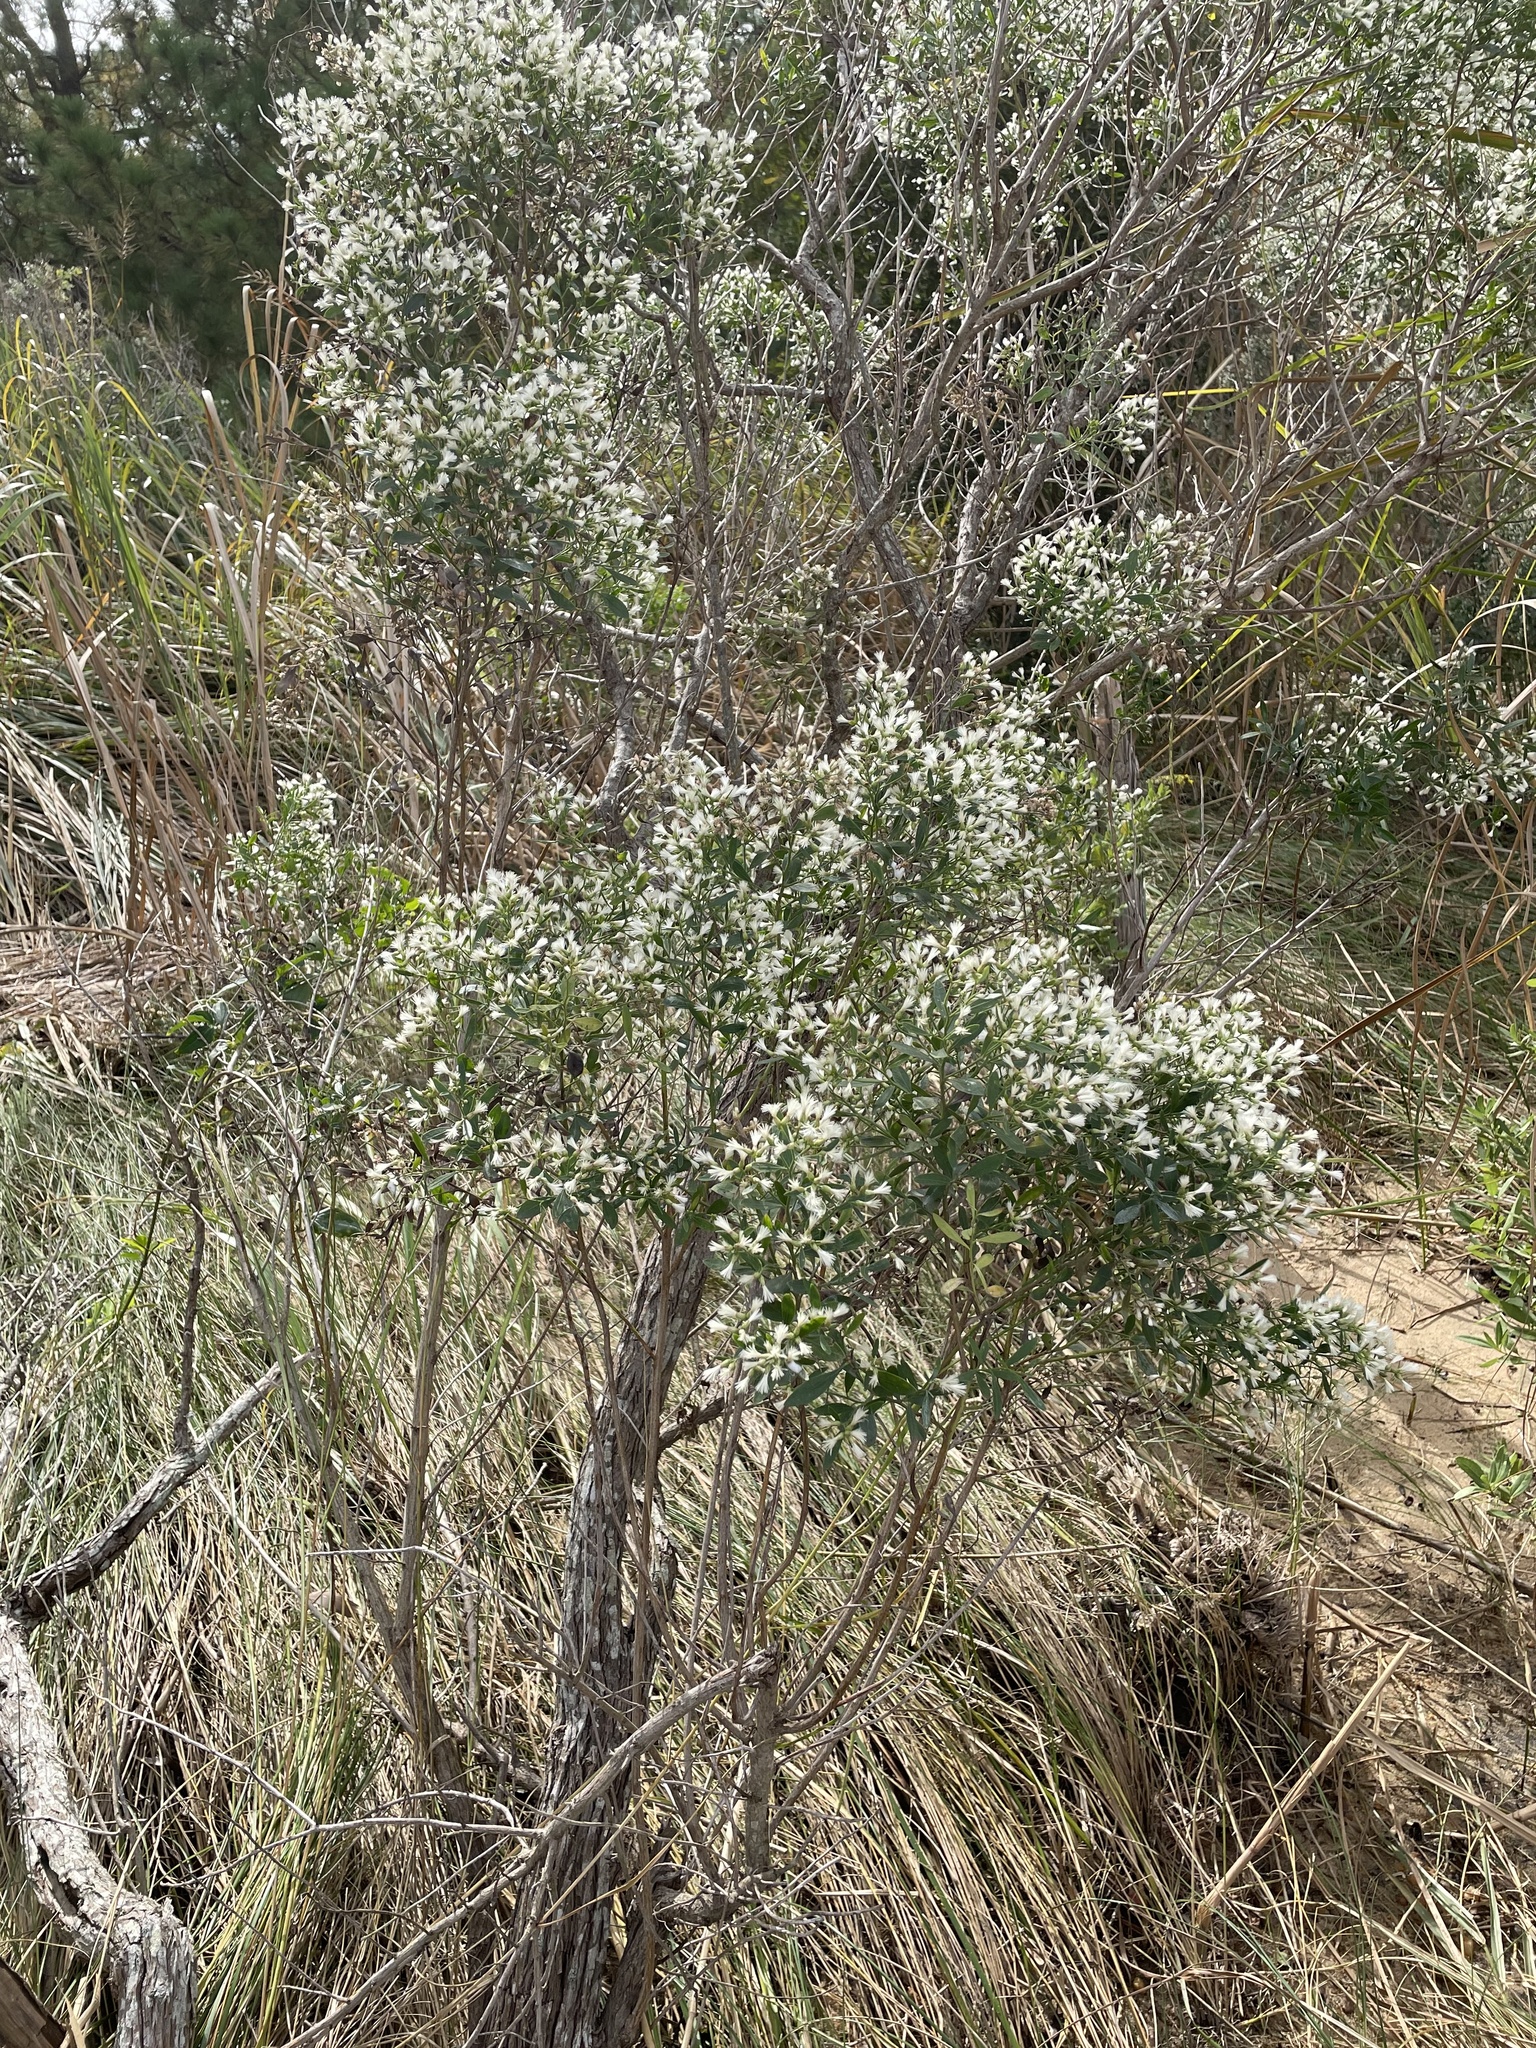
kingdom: Plantae
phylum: Tracheophyta
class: Magnoliopsida
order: Asterales
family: Asteraceae
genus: Baccharis
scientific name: Baccharis halimifolia
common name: Eastern baccharis
